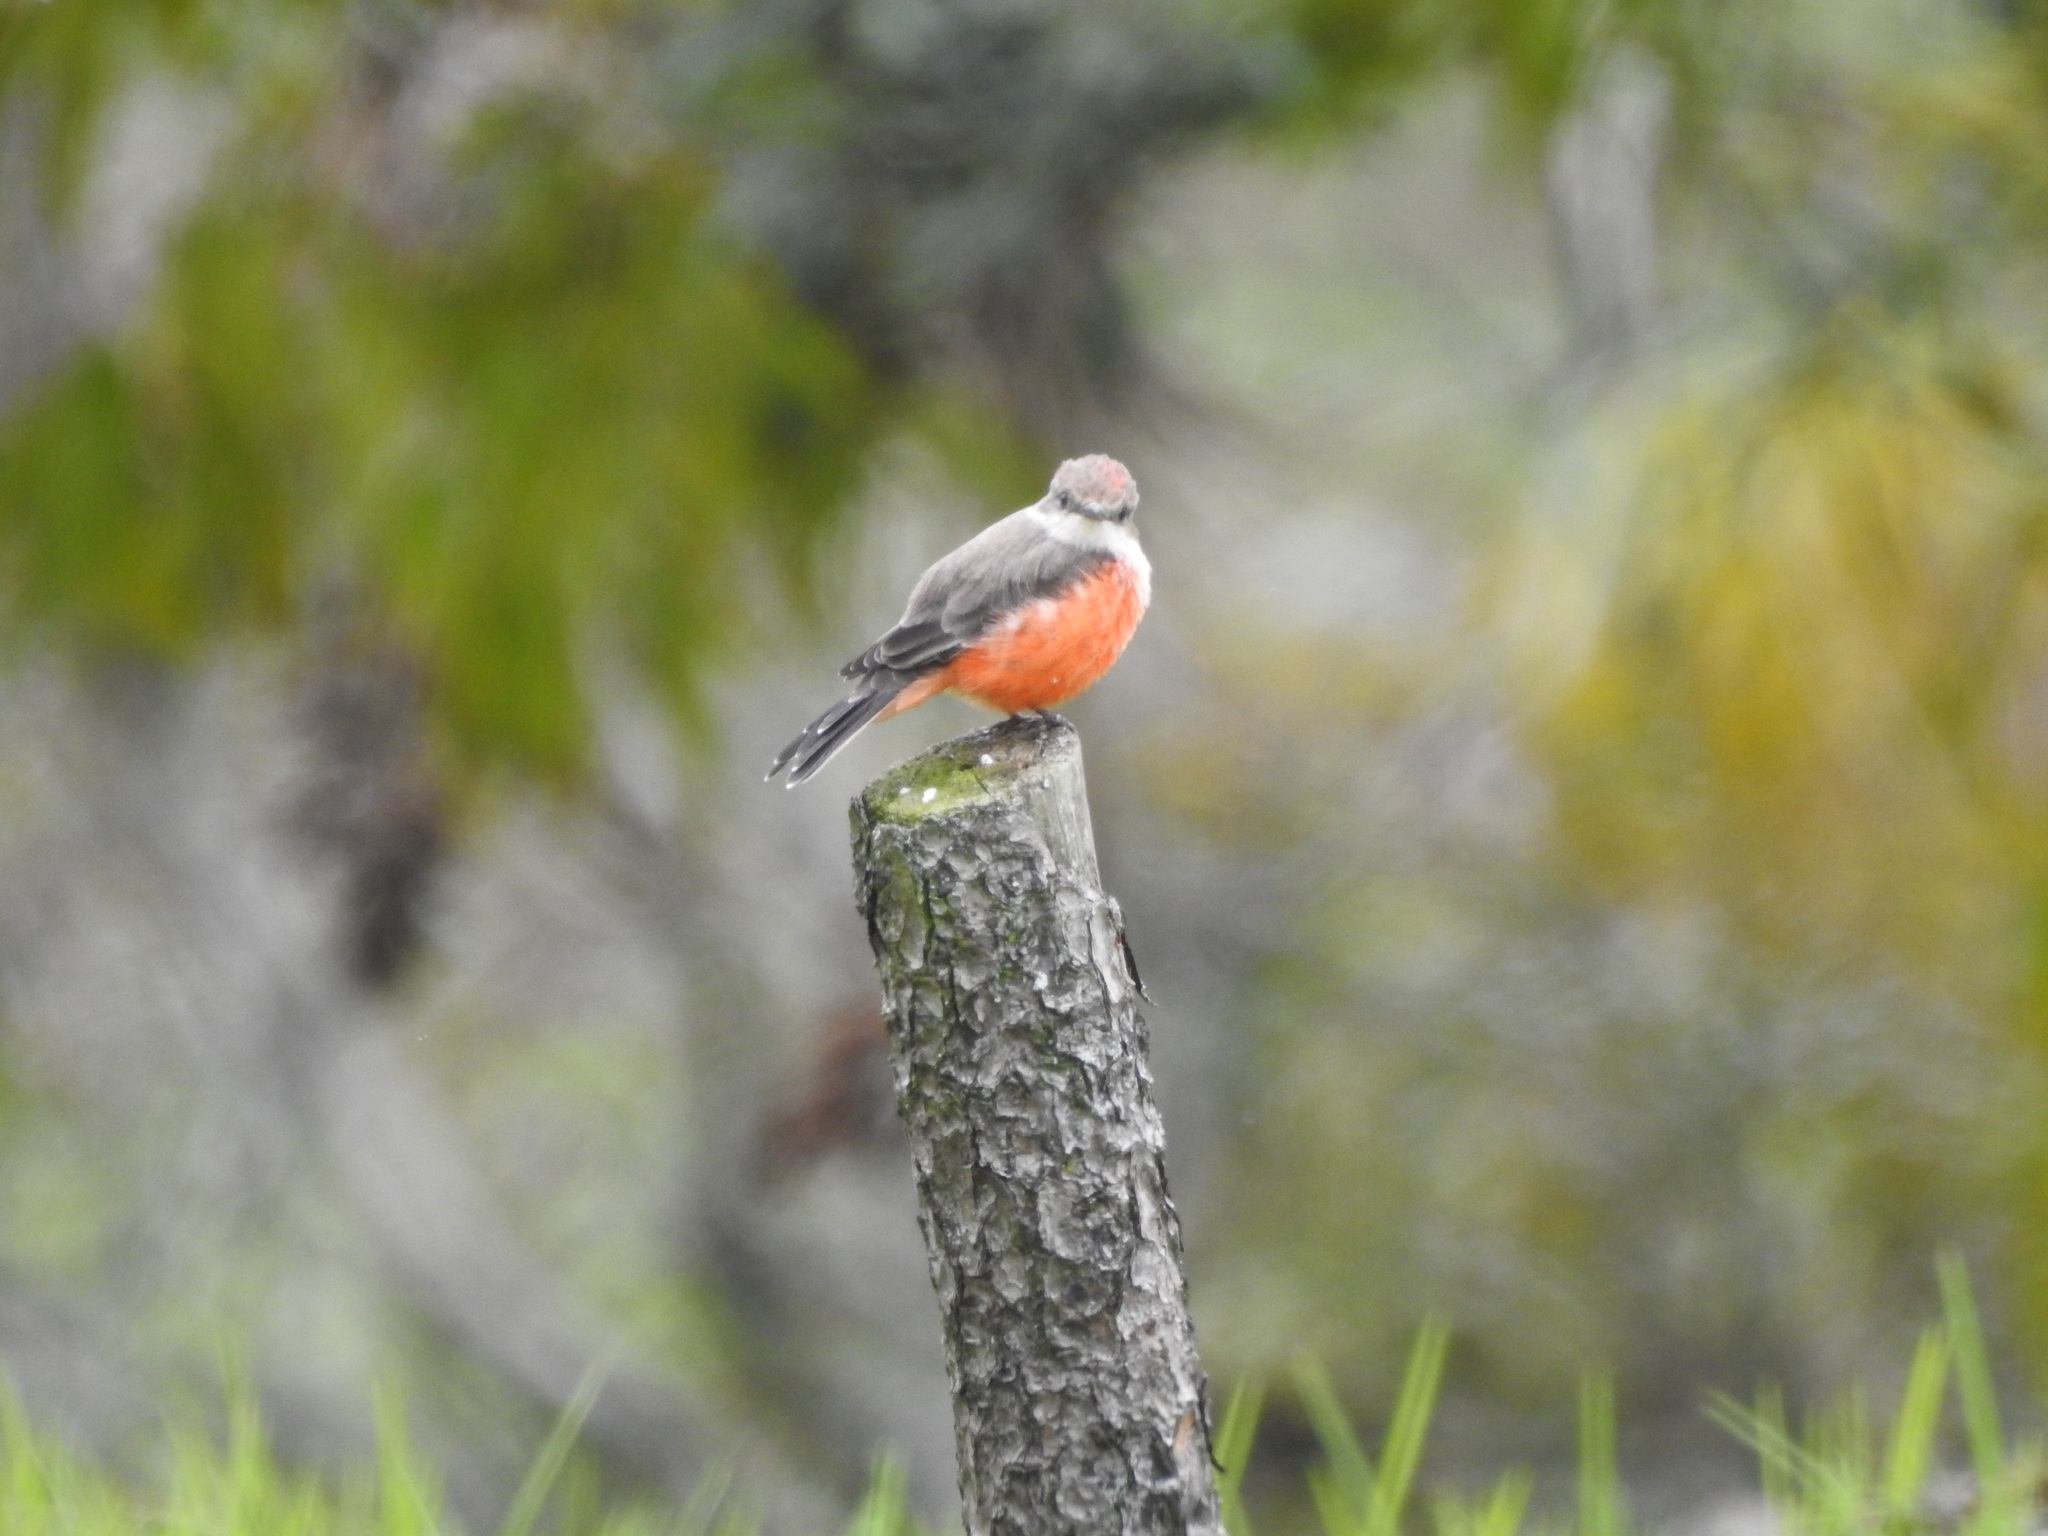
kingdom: Animalia
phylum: Chordata
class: Aves
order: Passeriformes
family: Tyrannidae
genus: Pyrocephalus
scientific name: Pyrocephalus rubinus
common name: Vermilion flycatcher
